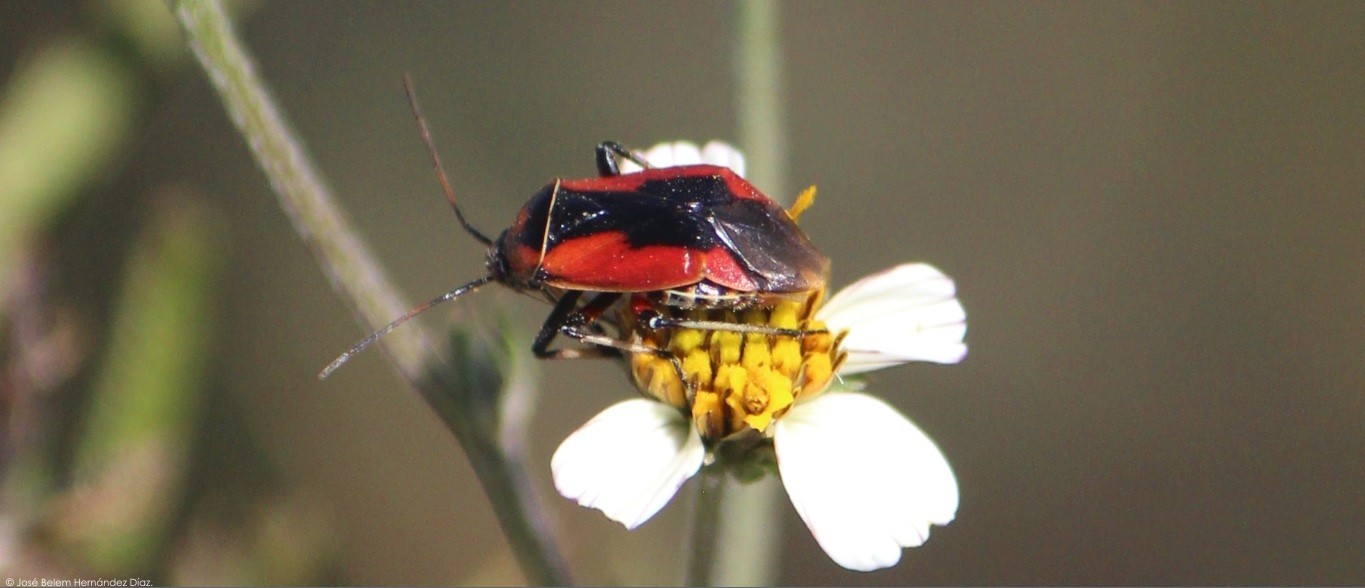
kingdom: Animalia
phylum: Arthropoda
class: Insecta
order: Hemiptera
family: Miridae
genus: Neocapsus
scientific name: Neocapsus fasciativentris
